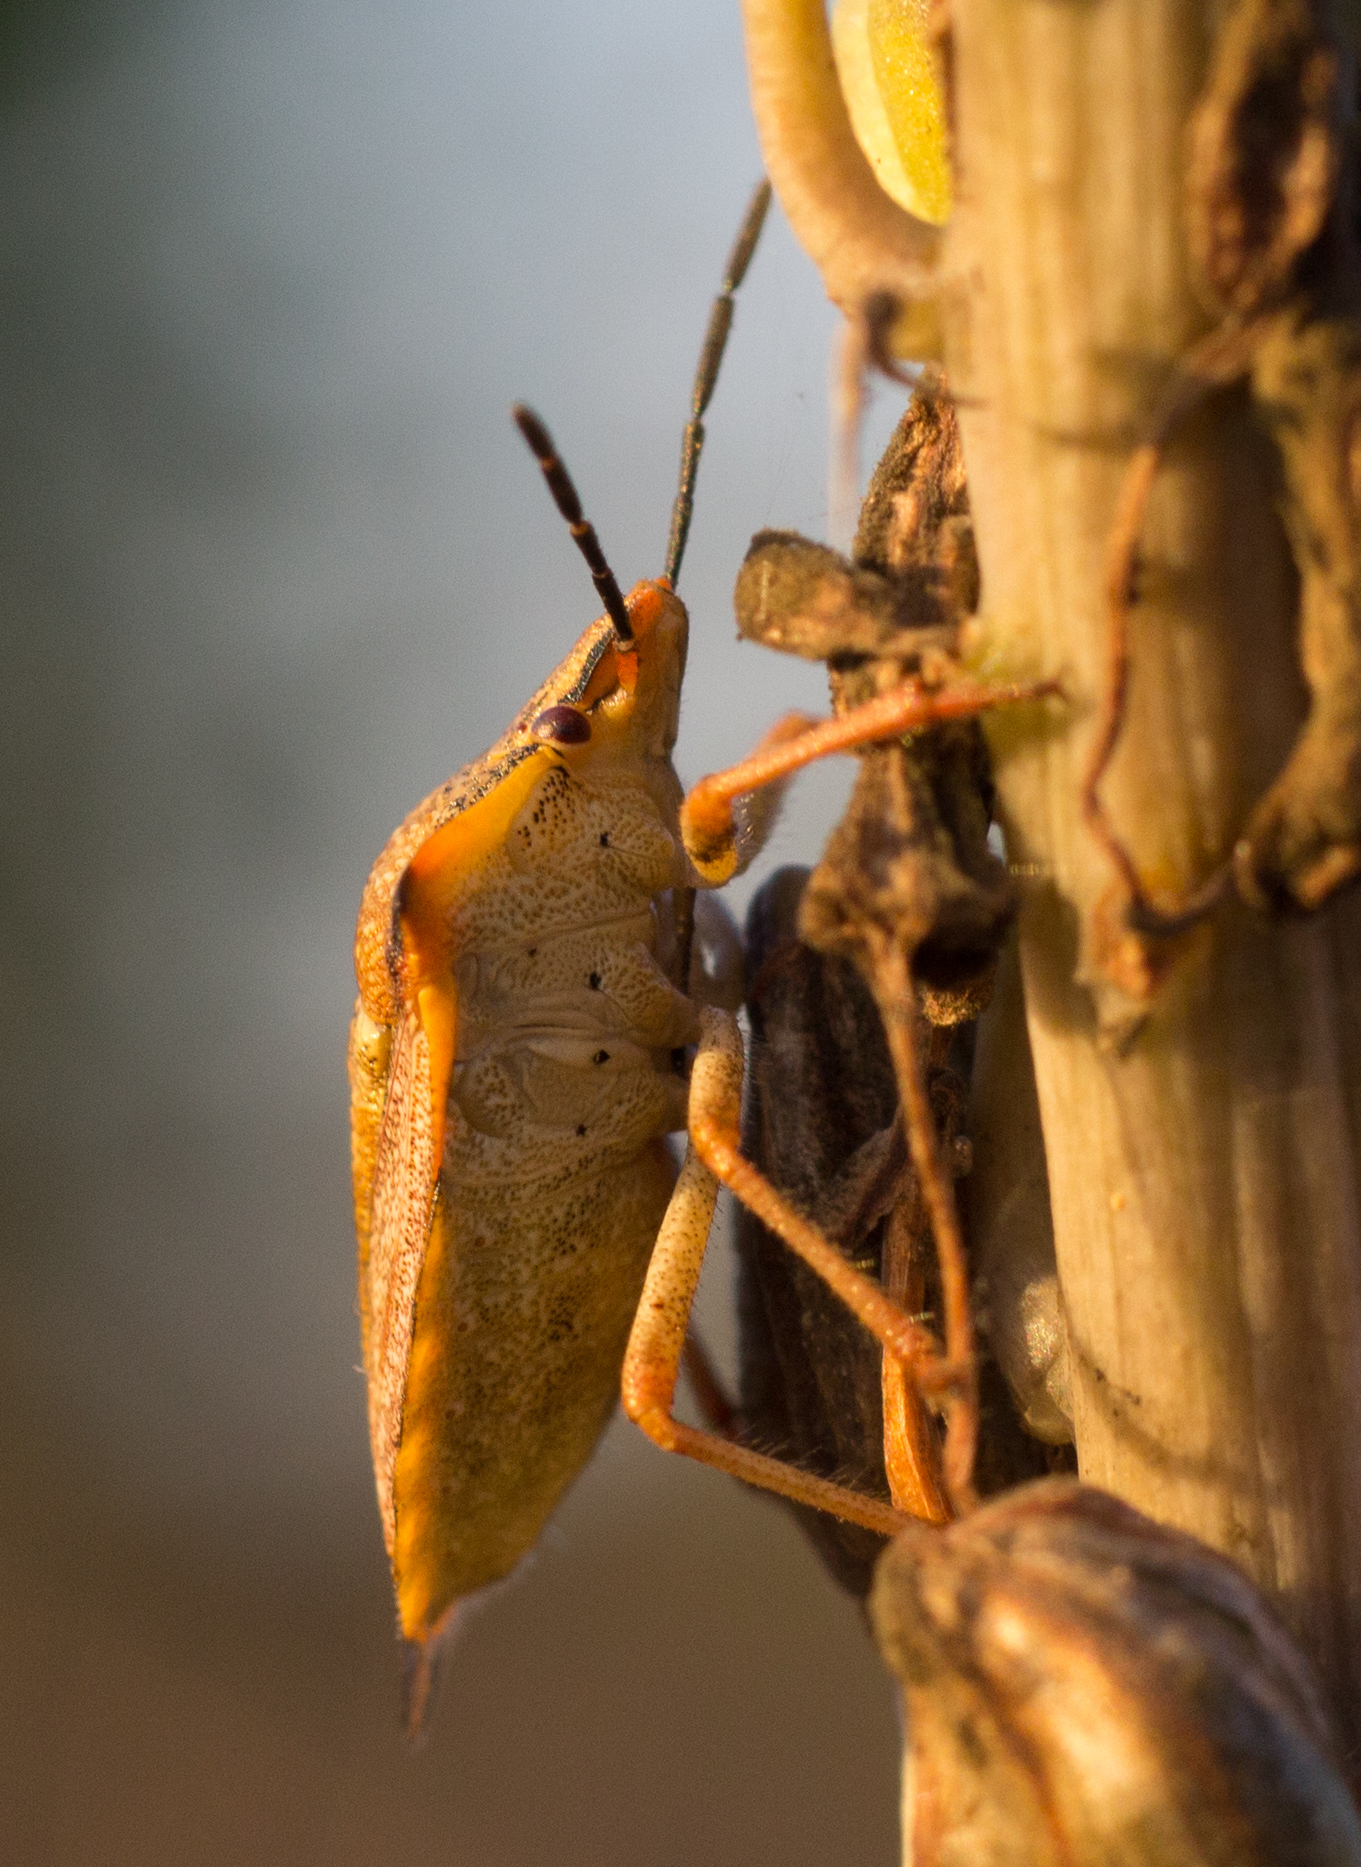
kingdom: Animalia
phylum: Arthropoda
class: Insecta
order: Hemiptera
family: Pentatomidae
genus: Carpocoris
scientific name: Carpocoris mediterraneus
